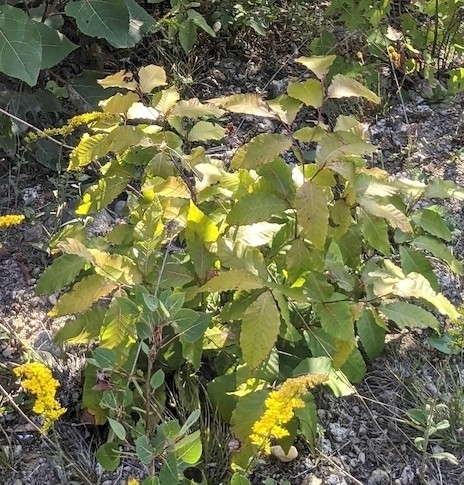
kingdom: Plantae
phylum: Tracheophyta
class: Magnoliopsida
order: Fagales
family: Fagaceae
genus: Fagus
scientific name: Fagus grandifolia
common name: American beech
